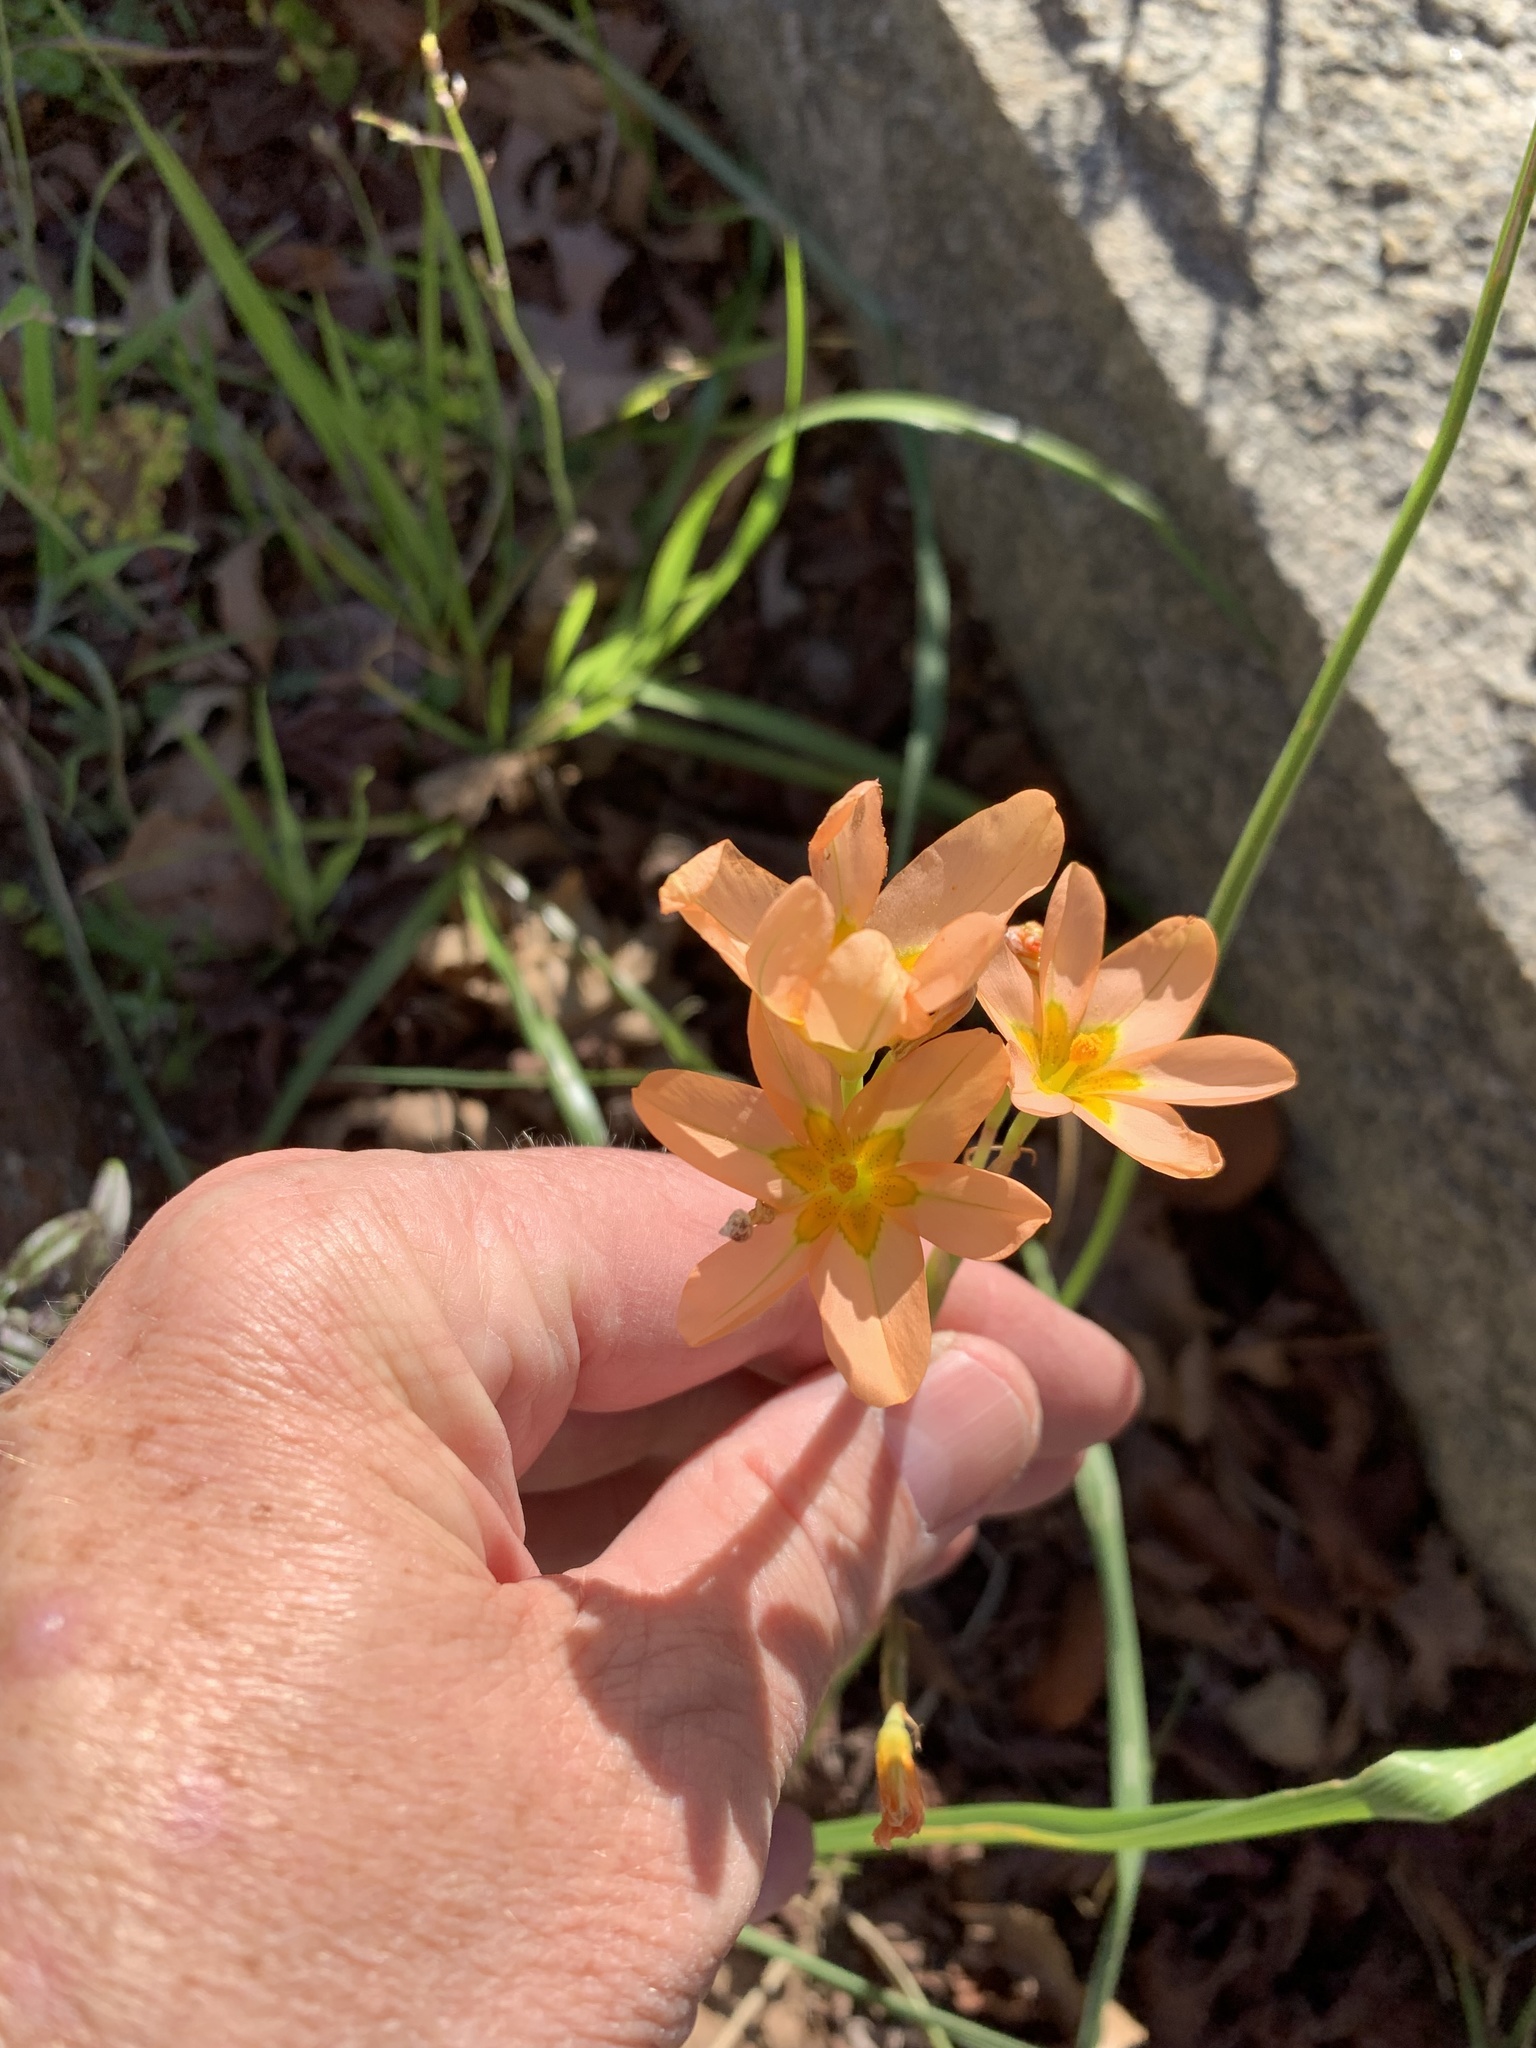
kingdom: Plantae
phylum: Tracheophyta
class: Liliopsida
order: Asparagales
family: Iridaceae
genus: Moraea
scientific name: Moraea miniata
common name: Two-leaf cape-tulip
